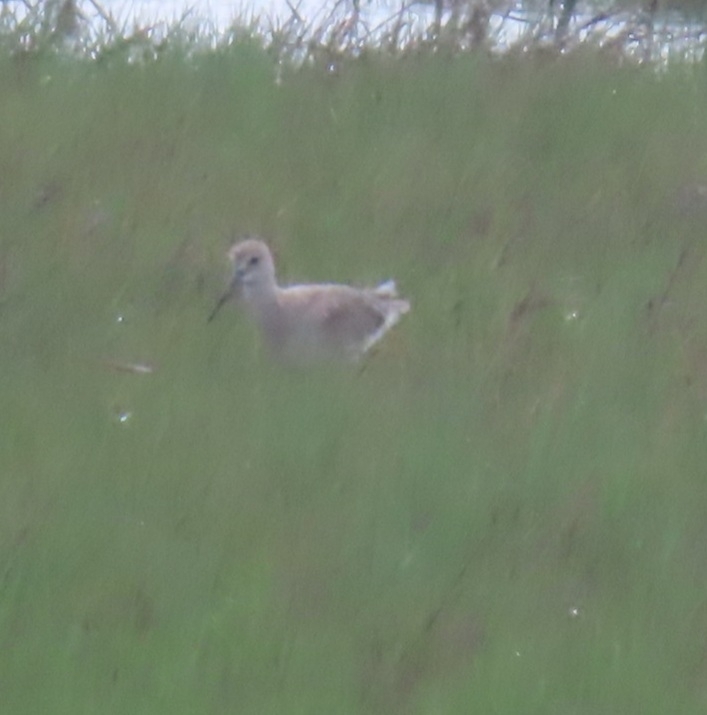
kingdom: Animalia
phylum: Chordata
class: Aves
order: Charadriiformes
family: Scolopacidae
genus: Tringa
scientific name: Tringa semipalmata
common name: Willet
